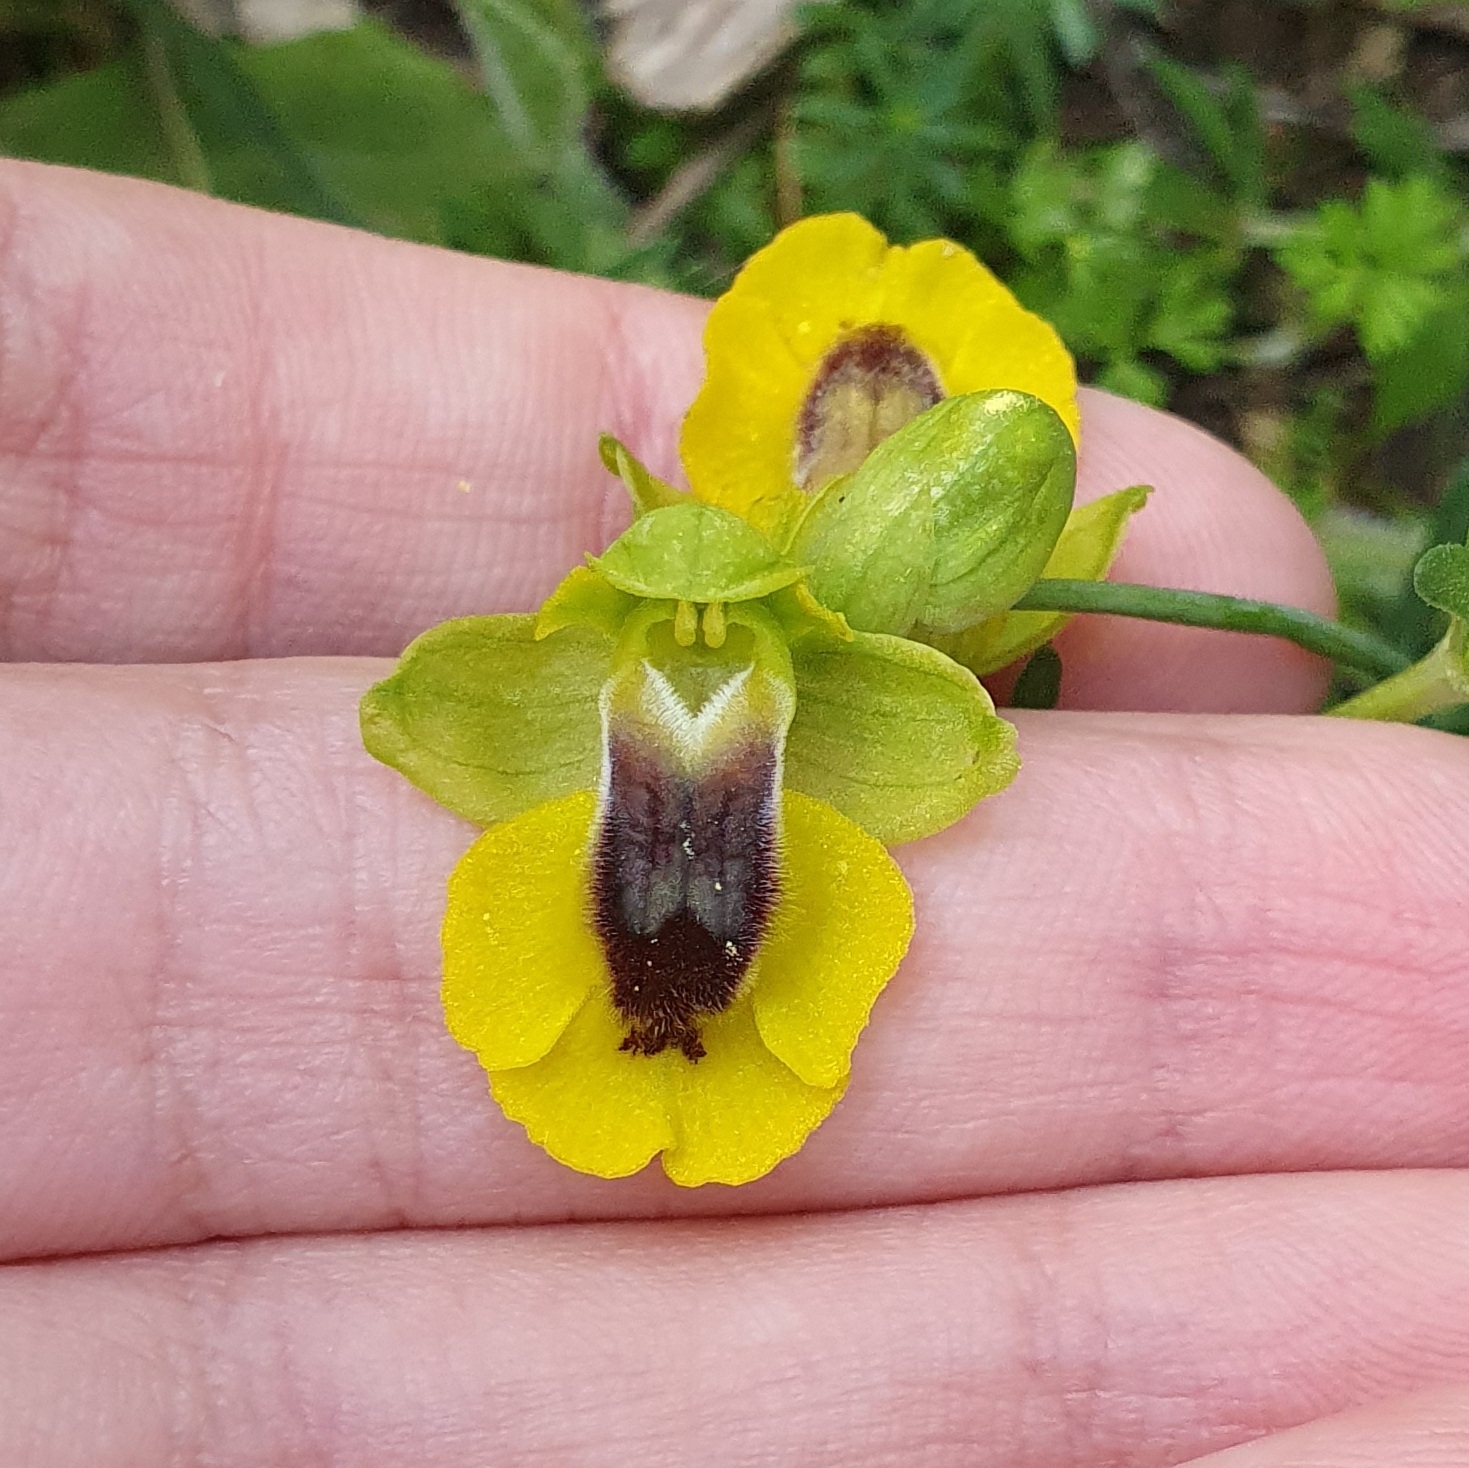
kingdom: Plantae
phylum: Tracheophyta
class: Liliopsida
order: Asparagales
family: Orchidaceae
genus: Ophrys
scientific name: Ophrys lutea
